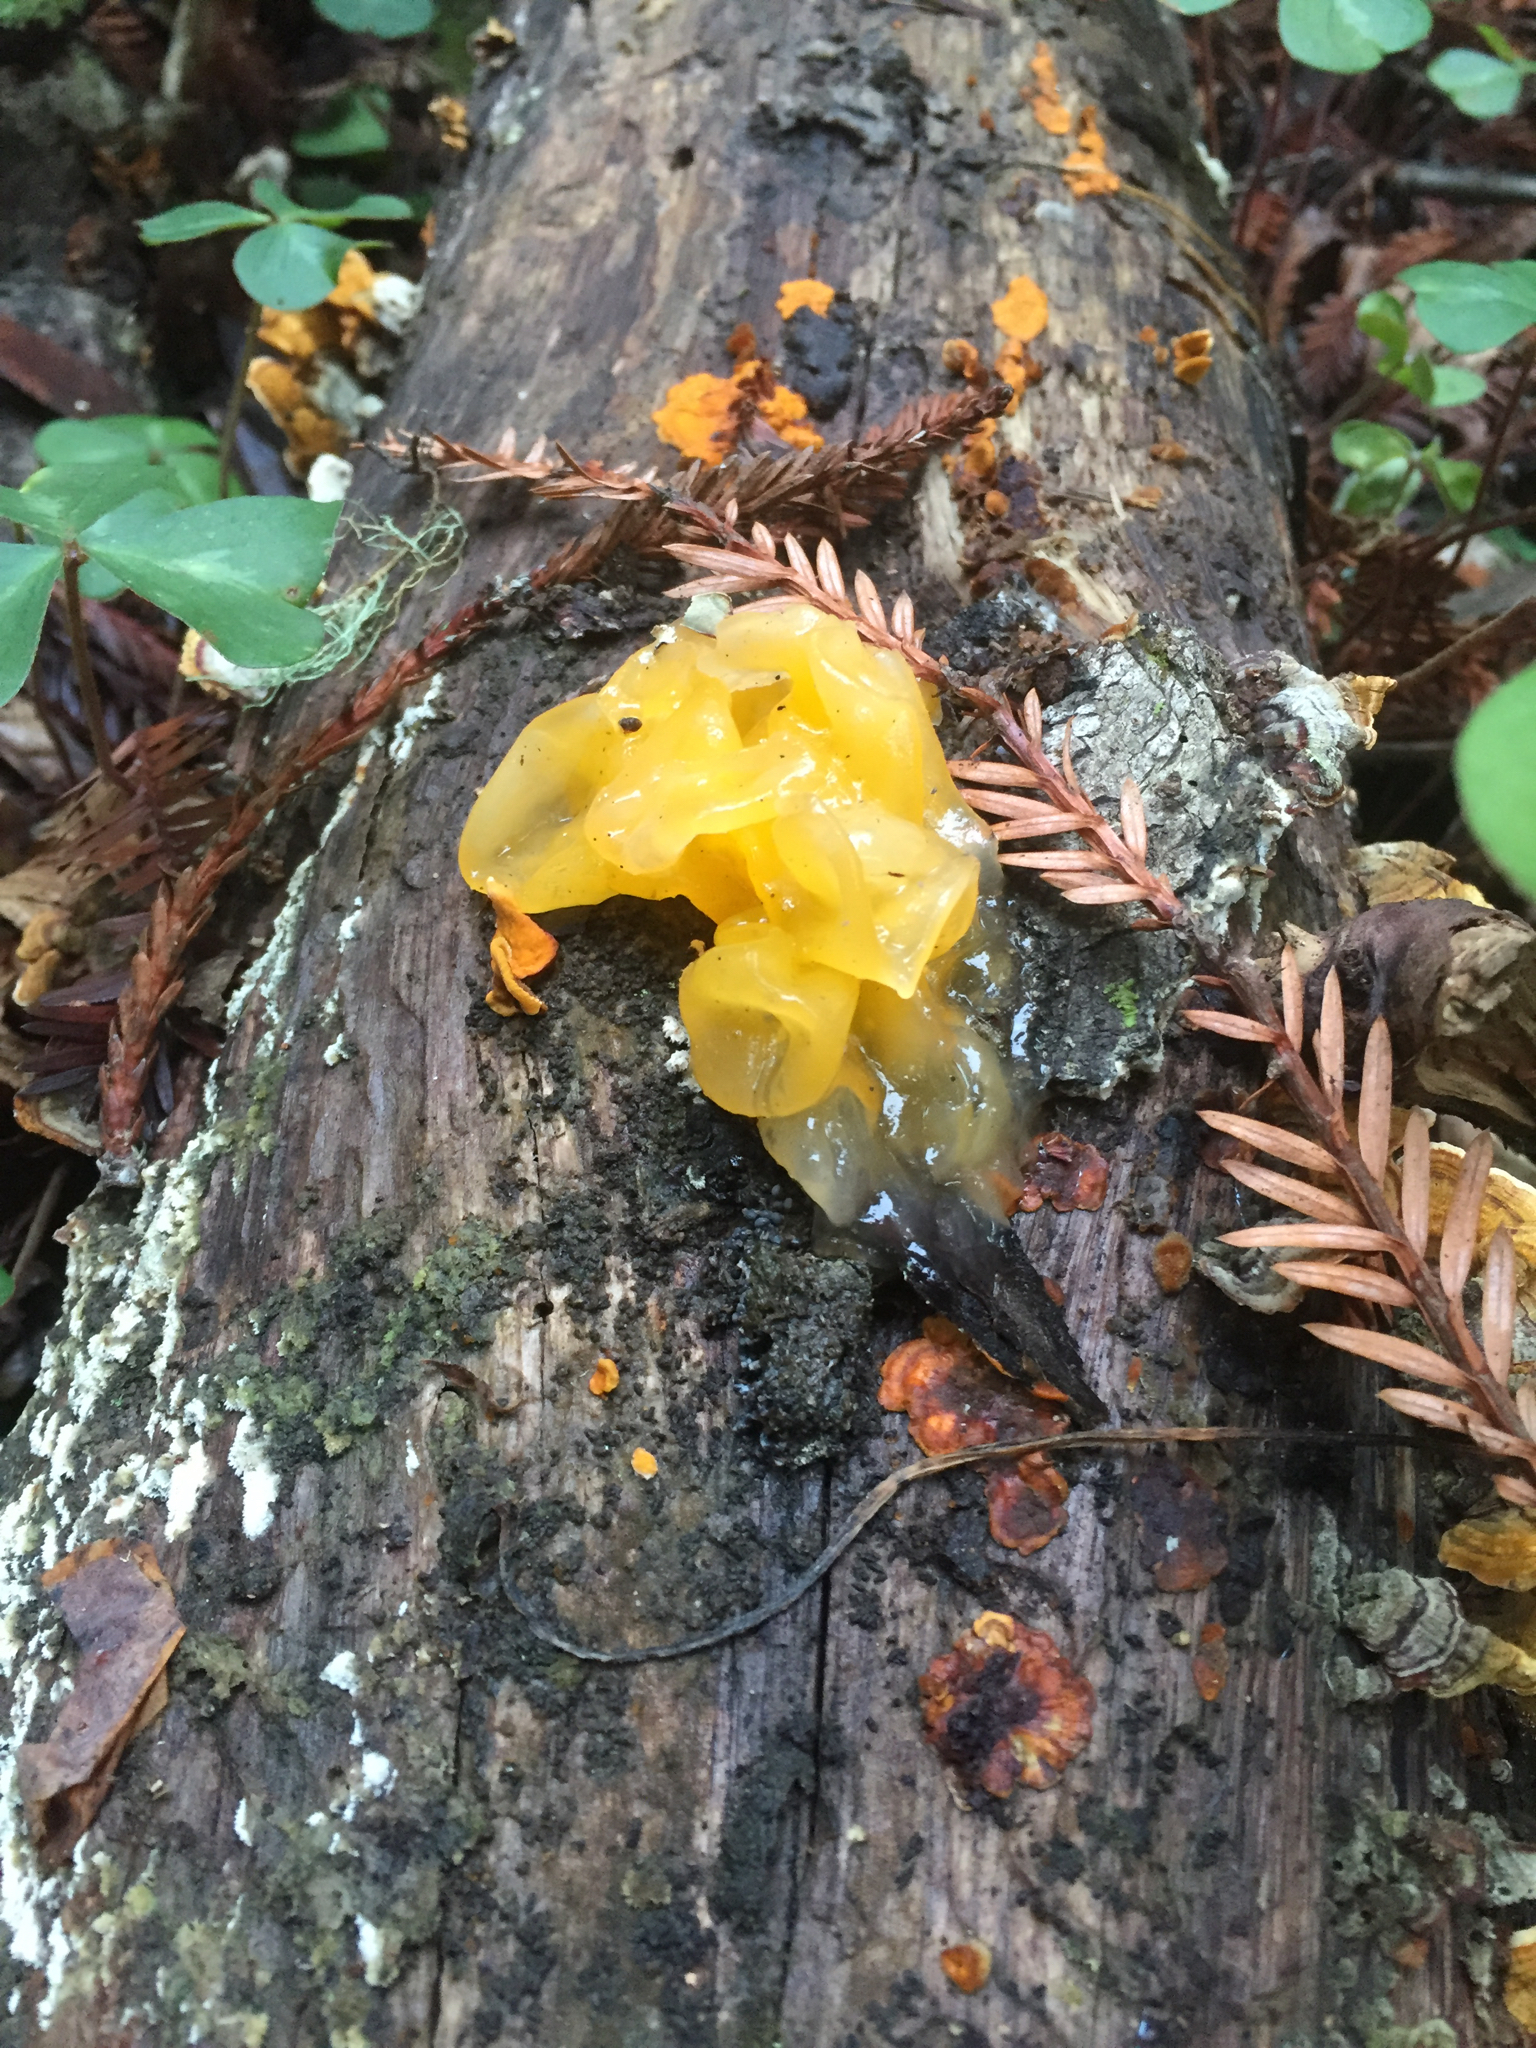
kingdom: Fungi
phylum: Basidiomycota
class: Tremellomycetes
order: Tremellales
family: Naemateliaceae
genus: Naematelia
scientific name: Naematelia aurantia
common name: Golden ear
